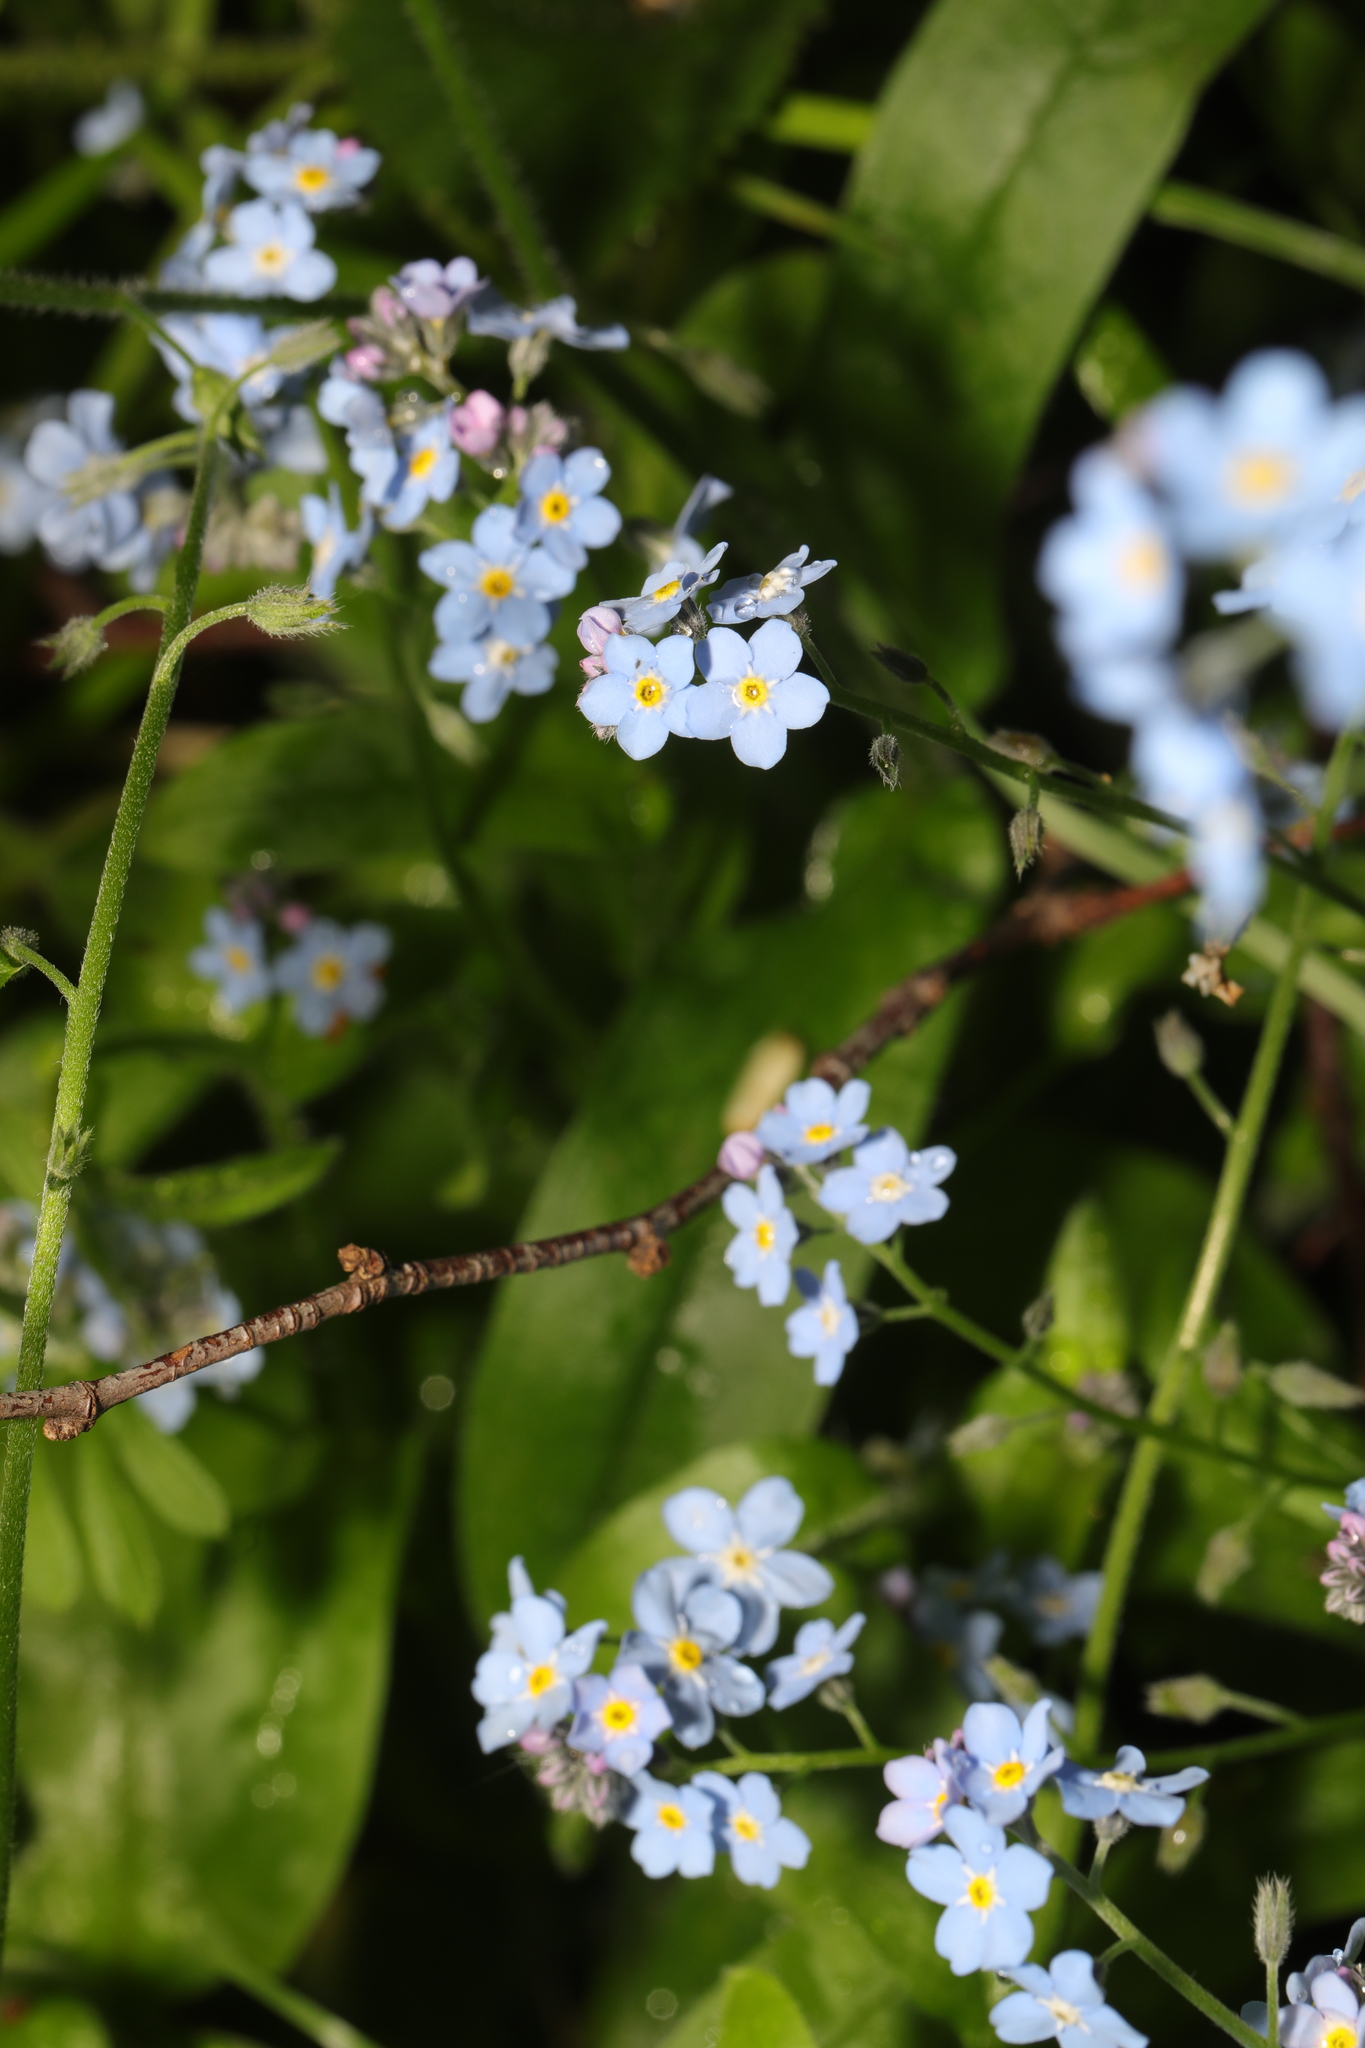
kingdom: Plantae
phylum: Tracheophyta
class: Magnoliopsida
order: Boraginales
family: Boraginaceae
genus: Myosotis
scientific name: Myosotis sylvatica
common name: Wood forget-me-not
